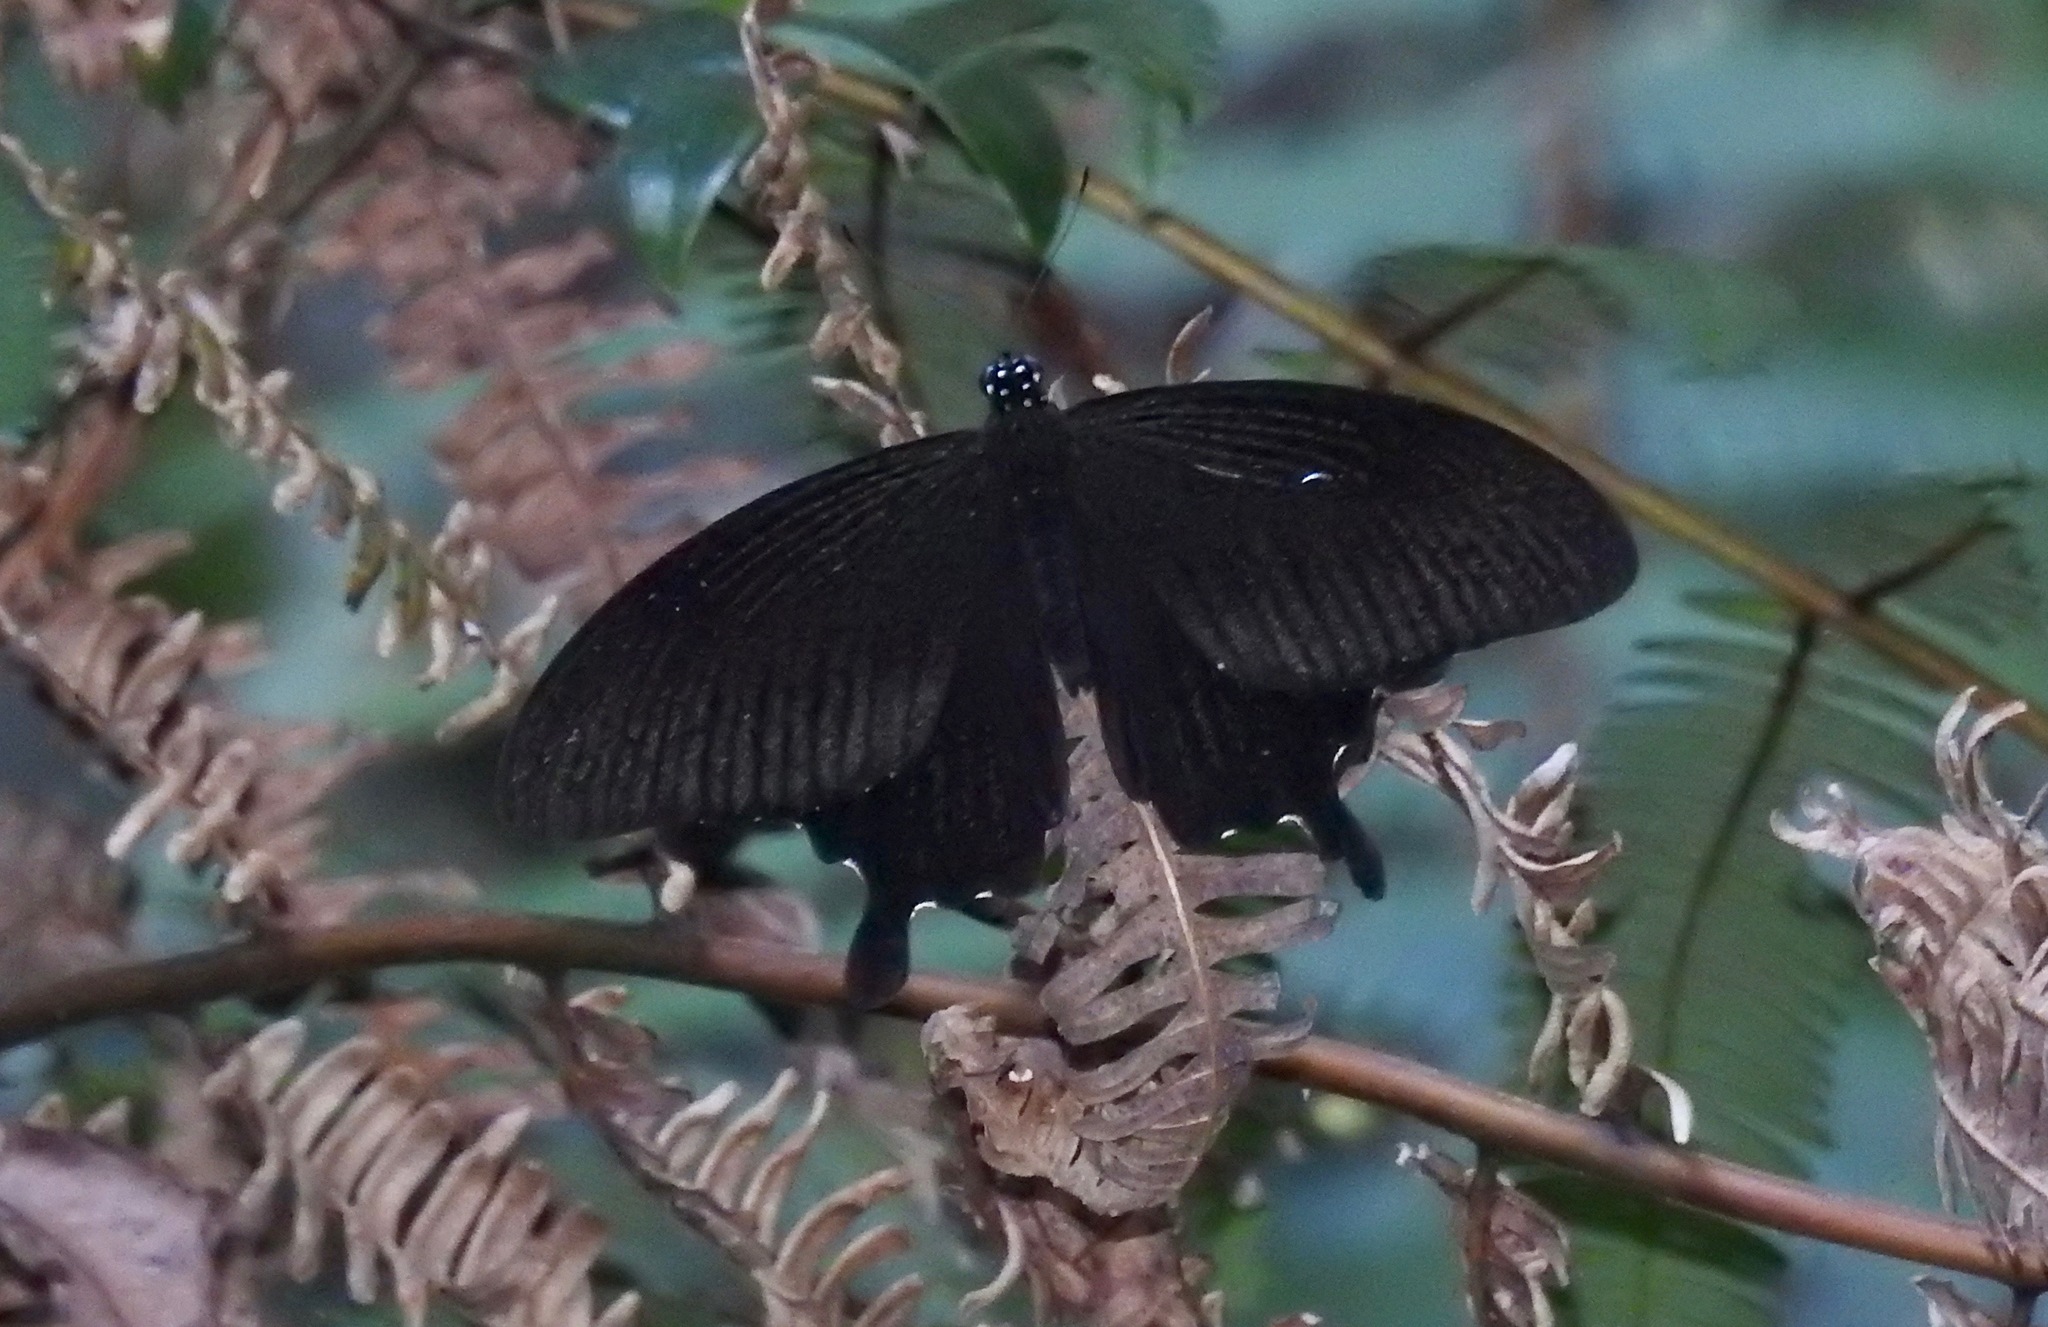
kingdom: Animalia
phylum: Arthropoda
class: Insecta
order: Lepidoptera
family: Papilionidae
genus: Papilio
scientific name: Papilio nephelus
